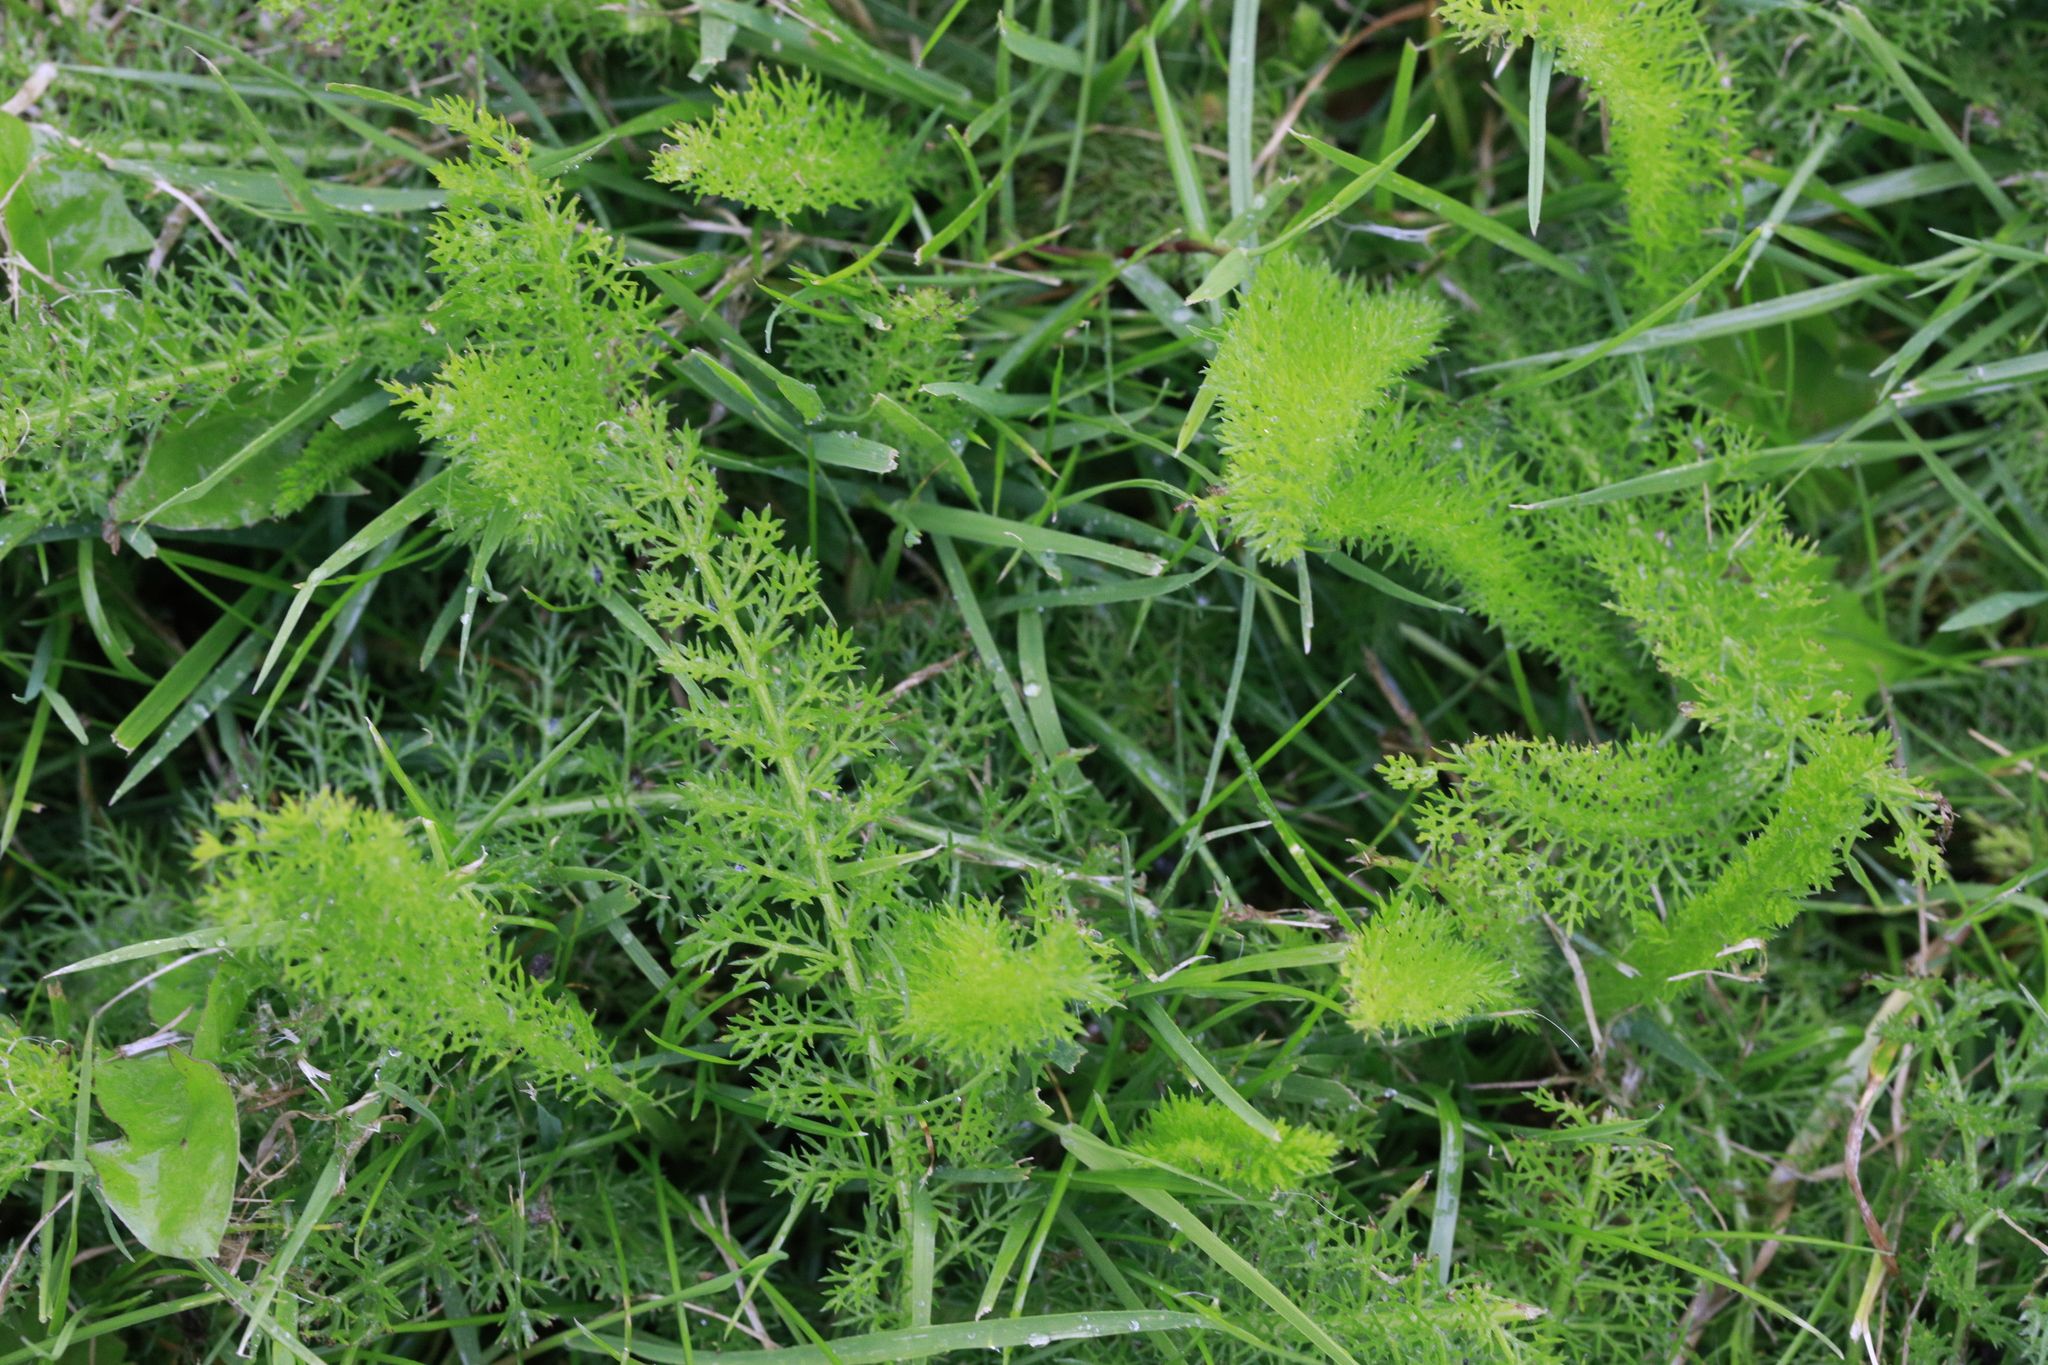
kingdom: Plantae
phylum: Tracheophyta
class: Magnoliopsida
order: Asterales
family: Asteraceae
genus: Achillea
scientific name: Achillea millefolium
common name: Yarrow
